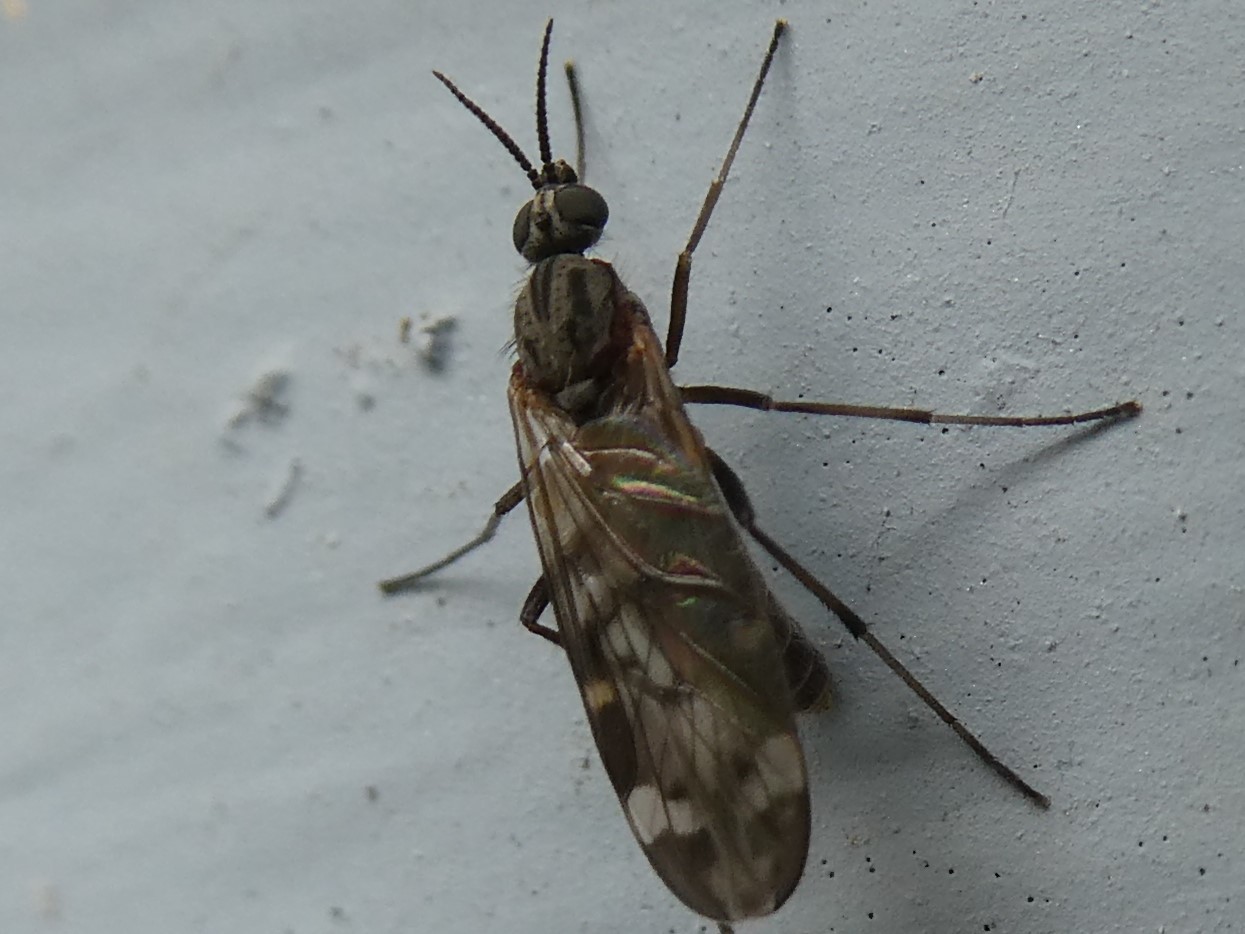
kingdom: Animalia
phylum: Arthropoda
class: Insecta
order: Diptera
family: Anisopodidae
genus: Sylvicola
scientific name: Sylvicola alternata
